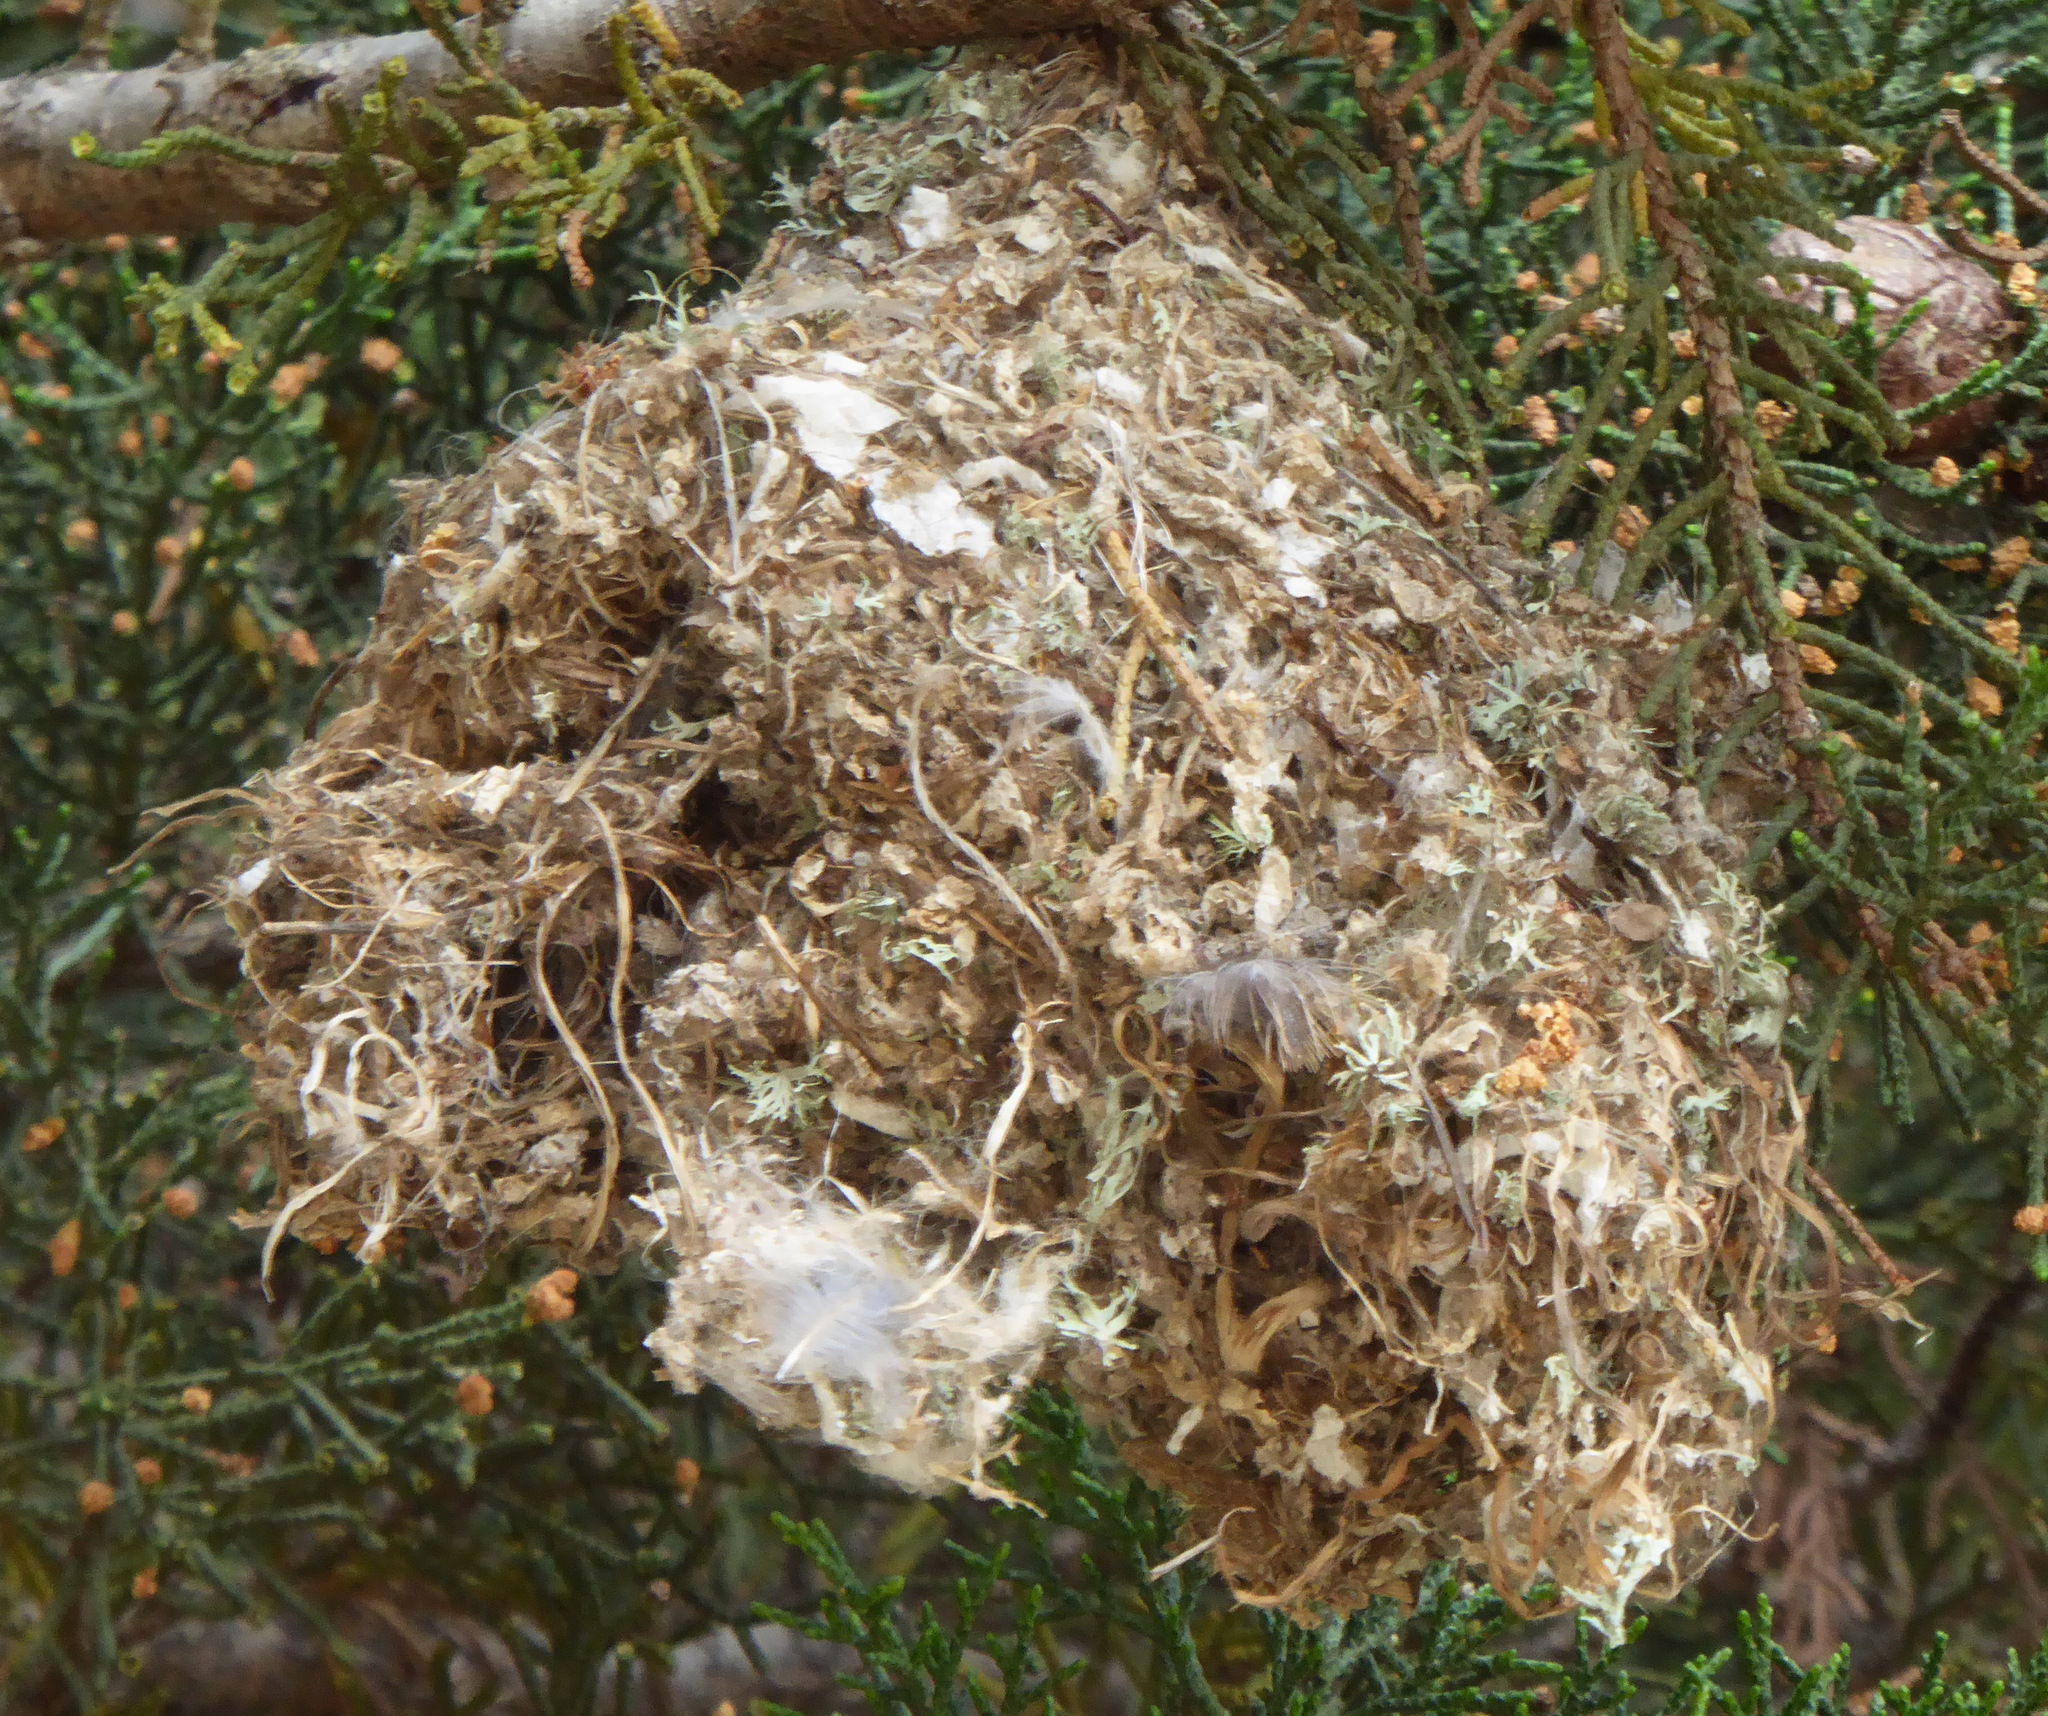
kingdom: Animalia
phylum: Chordata
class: Aves
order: Passeriformes
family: Aegithalidae
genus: Psaltriparus
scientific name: Psaltriparus minimus
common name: American bushtit
